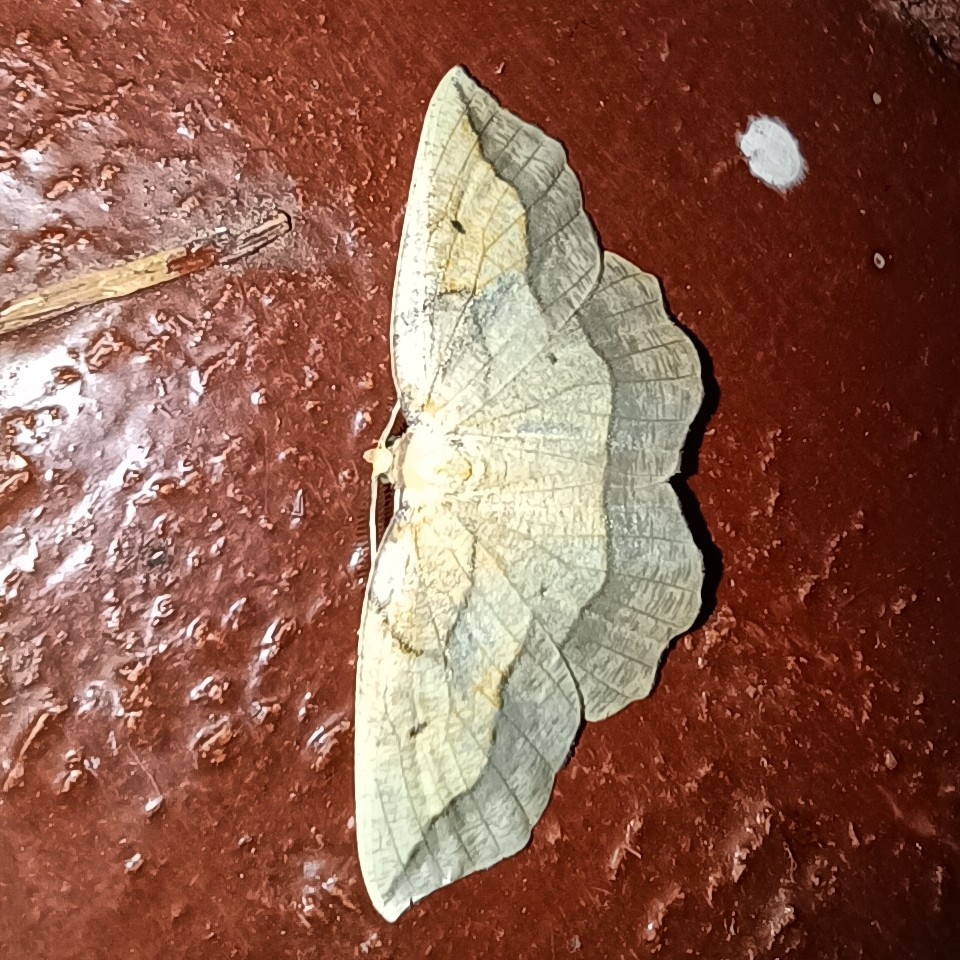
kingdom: Animalia
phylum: Arthropoda
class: Insecta
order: Lepidoptera
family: Geometridae
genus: Epione
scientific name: Epione repandaria
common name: Bordered beauty
